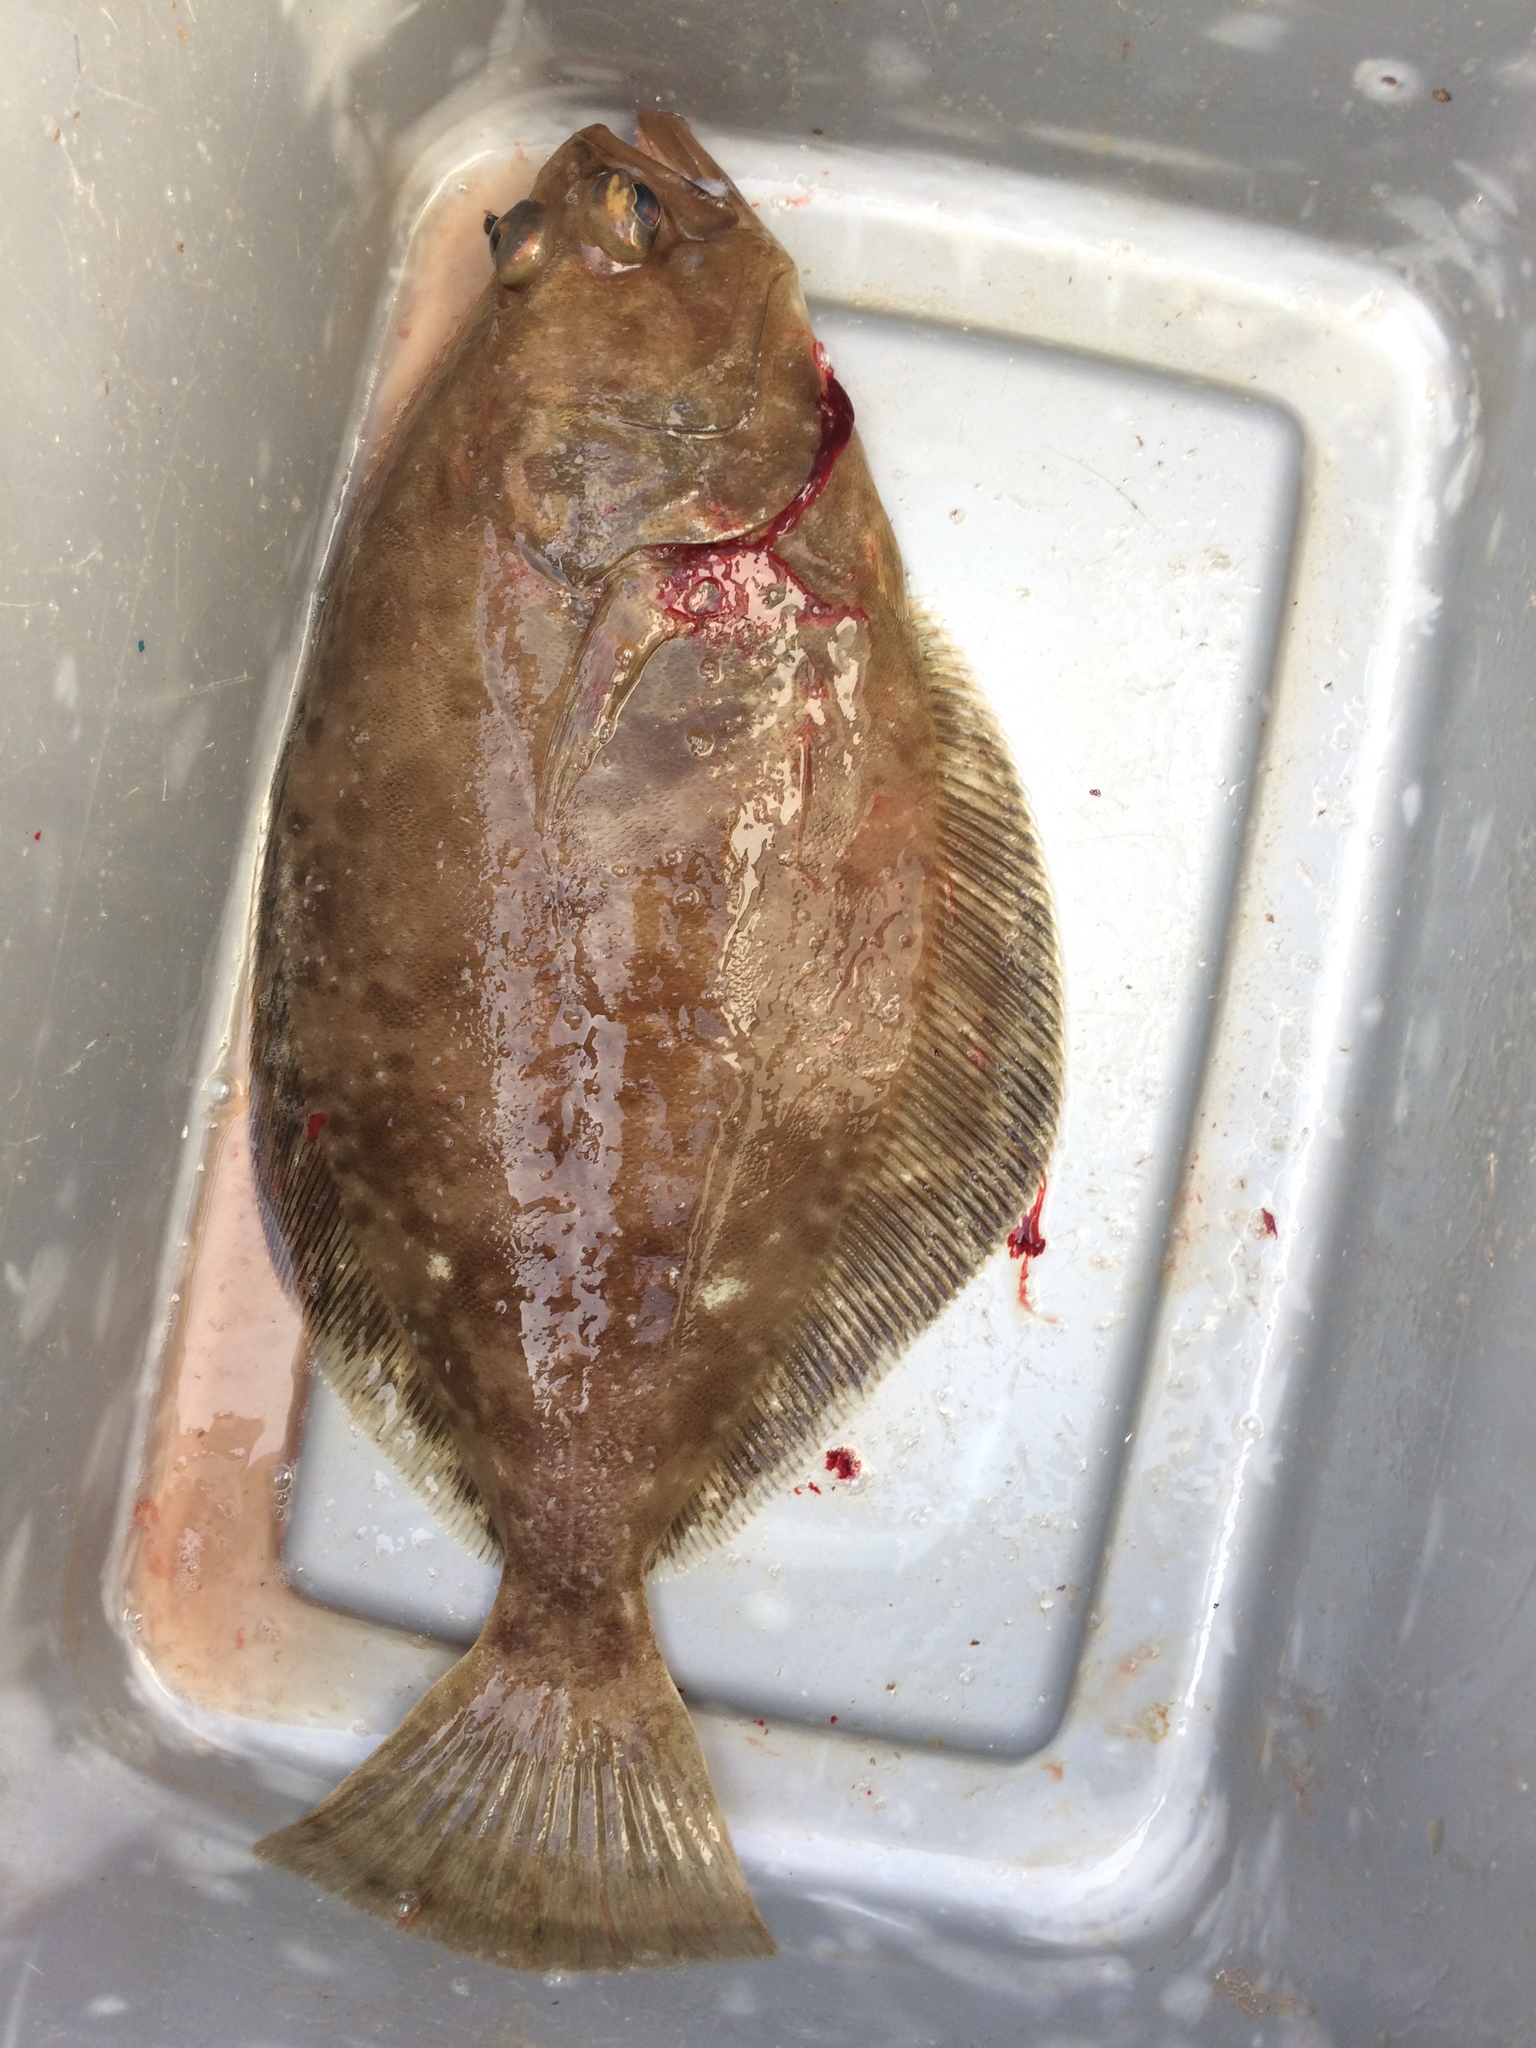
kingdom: Animalia
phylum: Chordata
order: Pleuronectiformes
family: Pleuronectidae
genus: Eopsetta
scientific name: Eopsetta jordani
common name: Brill
